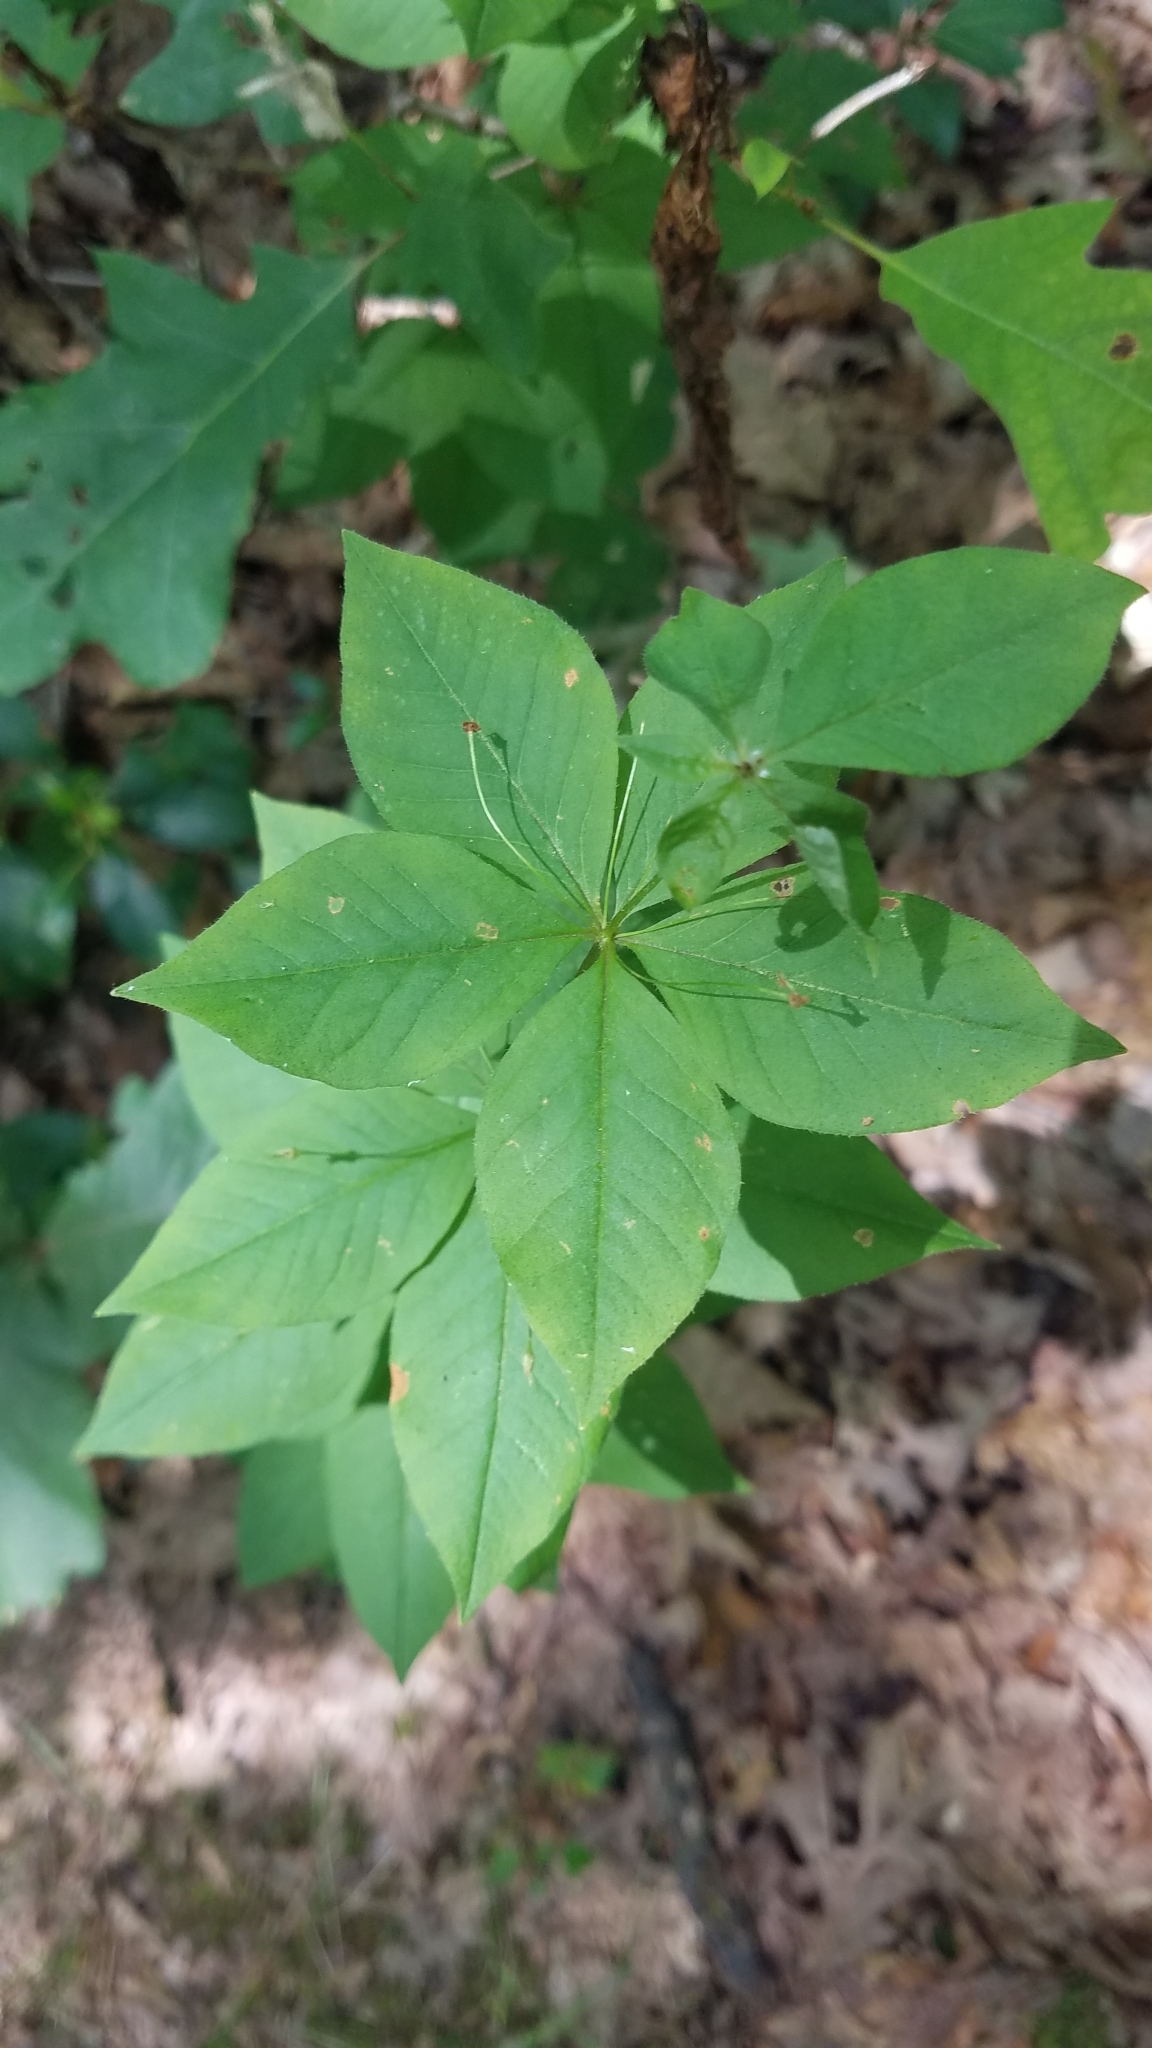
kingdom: Plantae
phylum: Tracheophyta
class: Magnoliopsida
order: Ericales
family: Primulaceae
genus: Lysimachia
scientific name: Lysimachia quadrifolia
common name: Whorled loosestrife
